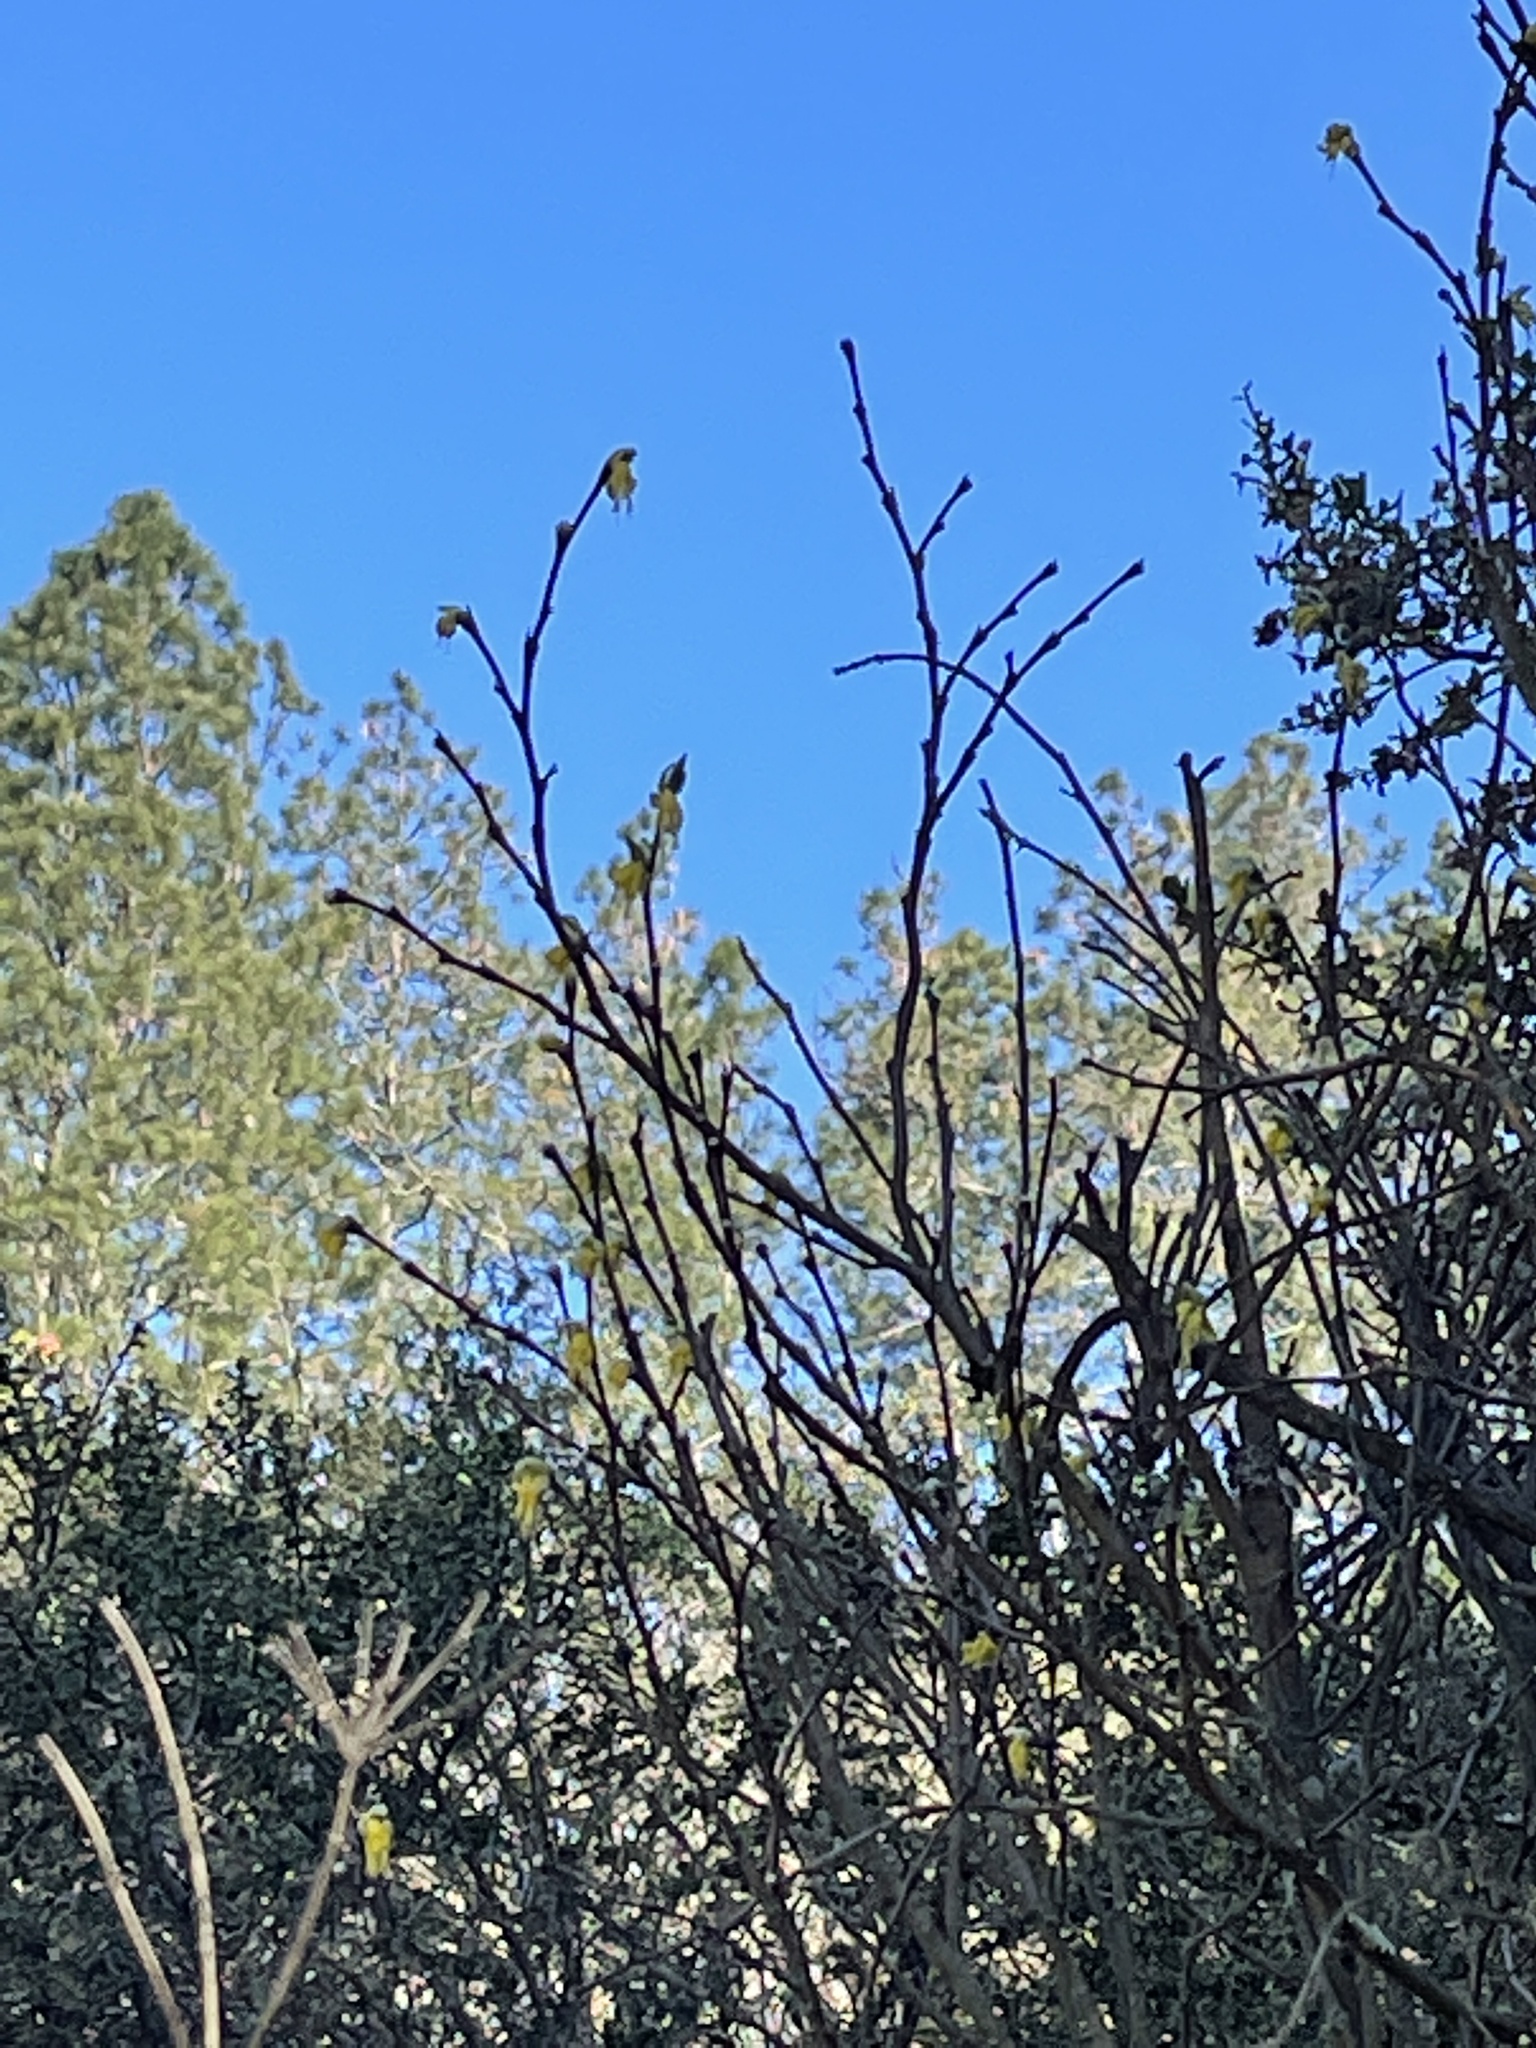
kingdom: Plantae
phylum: Tracheophyta
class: Magnoliopsida
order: Malvales
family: Thymelaeaceae
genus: Dirca
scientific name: Dirca occidentalis
